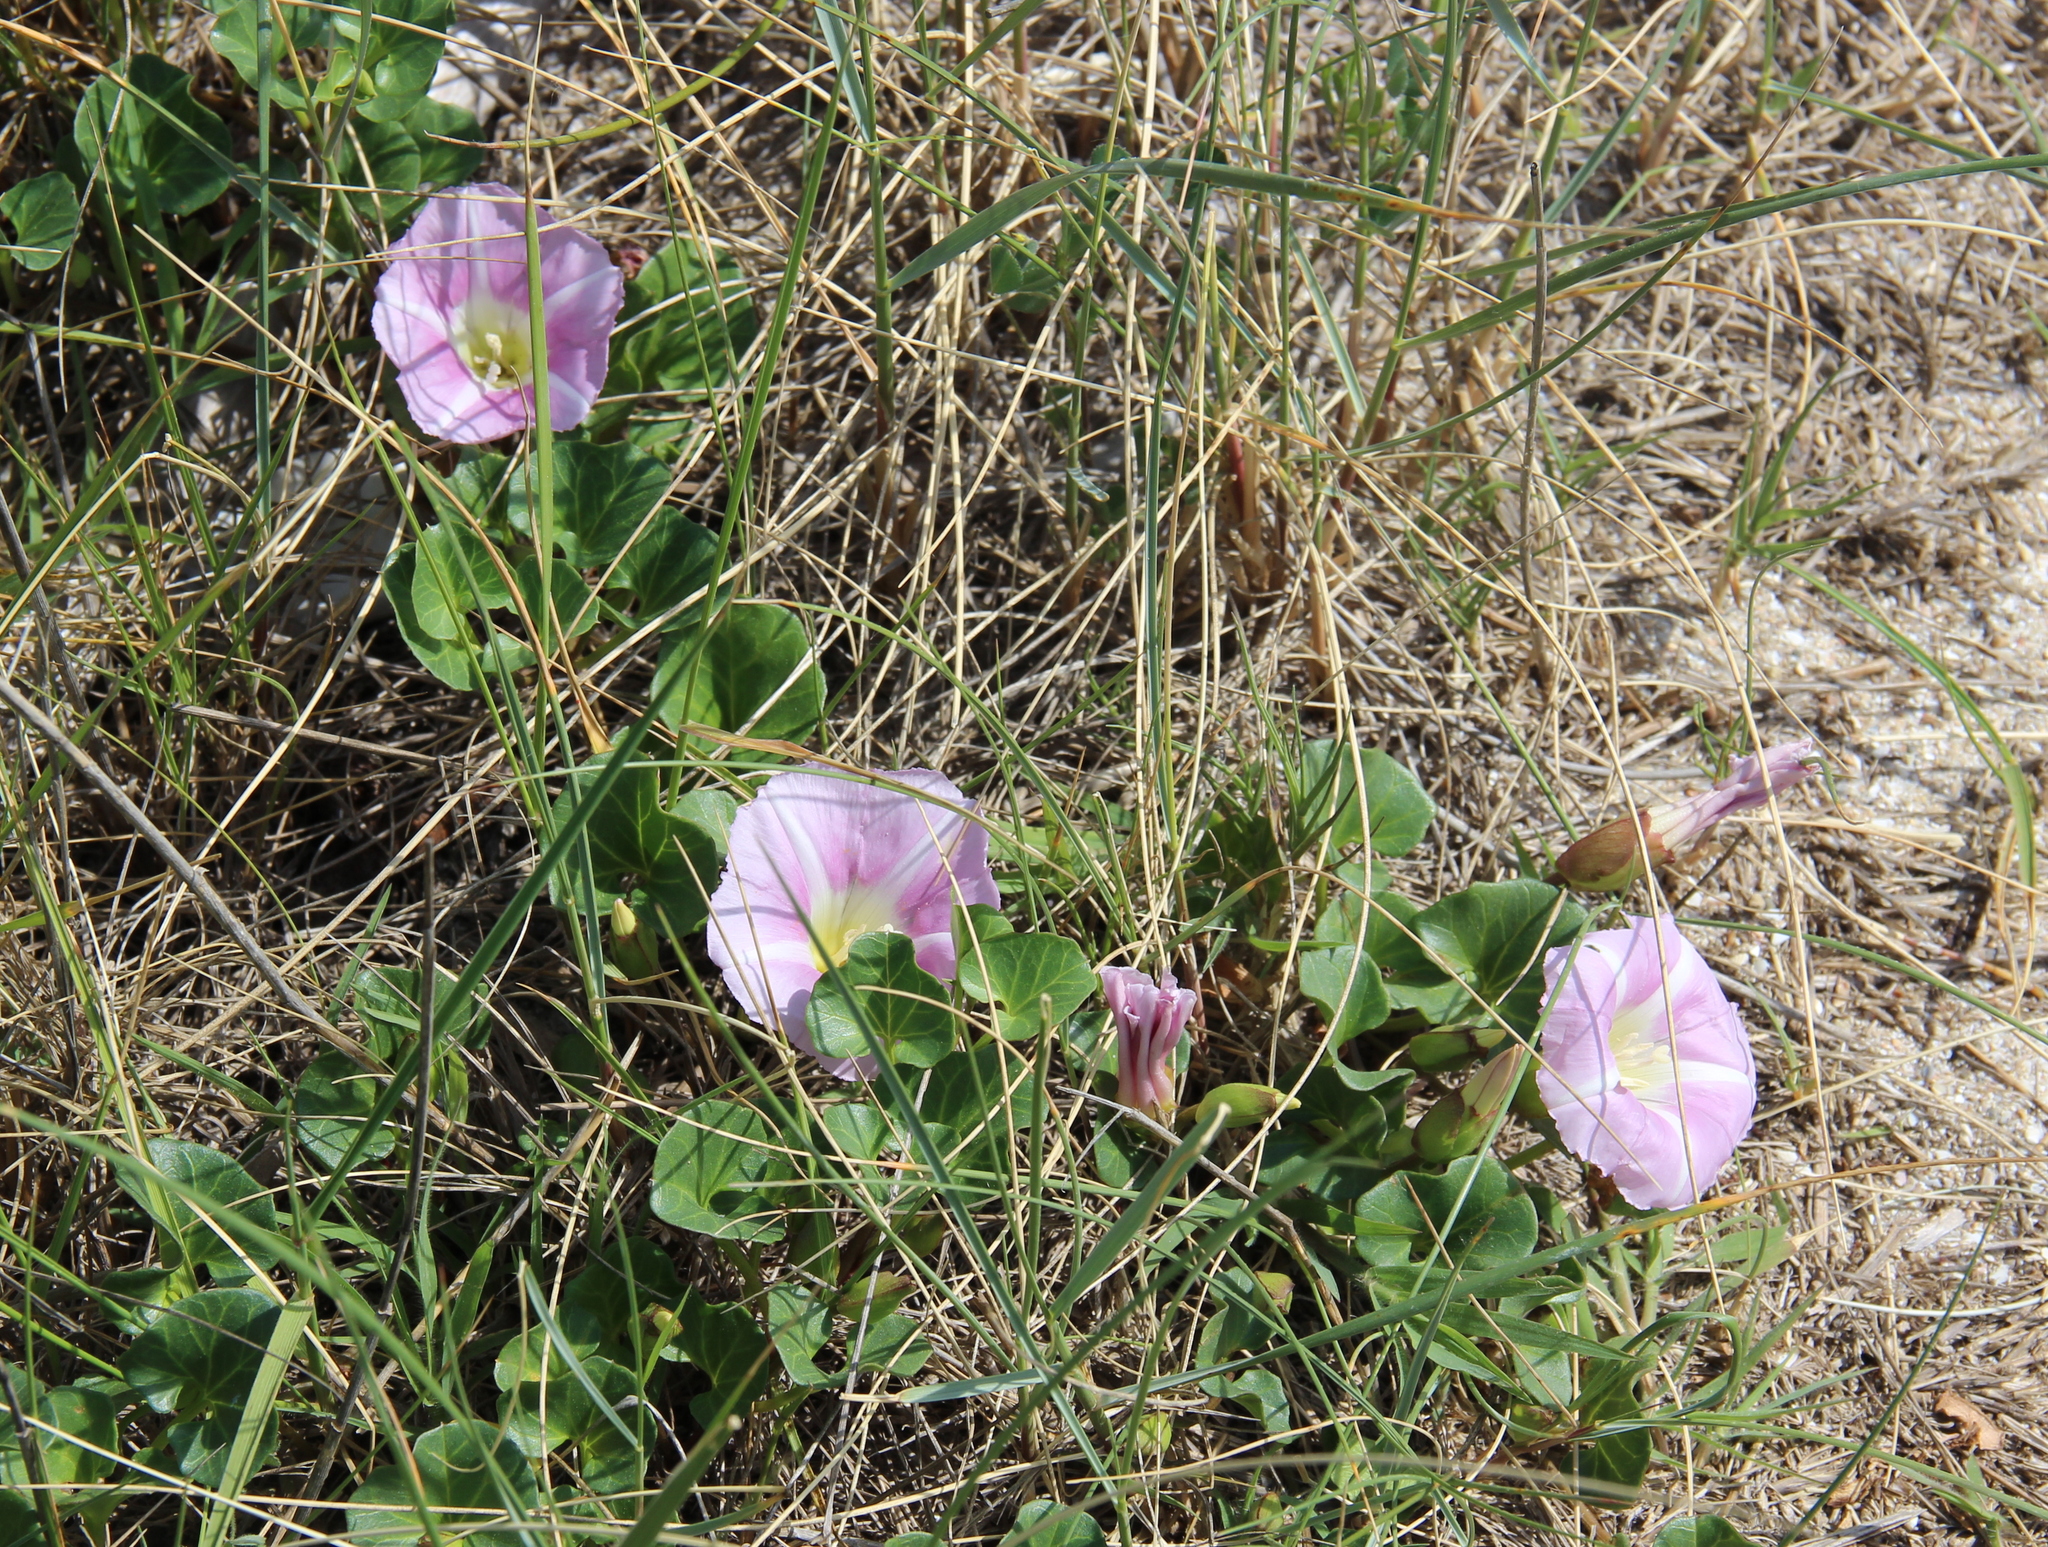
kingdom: Plantae
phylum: Tracheophyta
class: Magnoliopsida
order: Solanales
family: Convolvulaceae
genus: Calystegia
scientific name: Calystegia soldanella
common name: Sea bindweed
